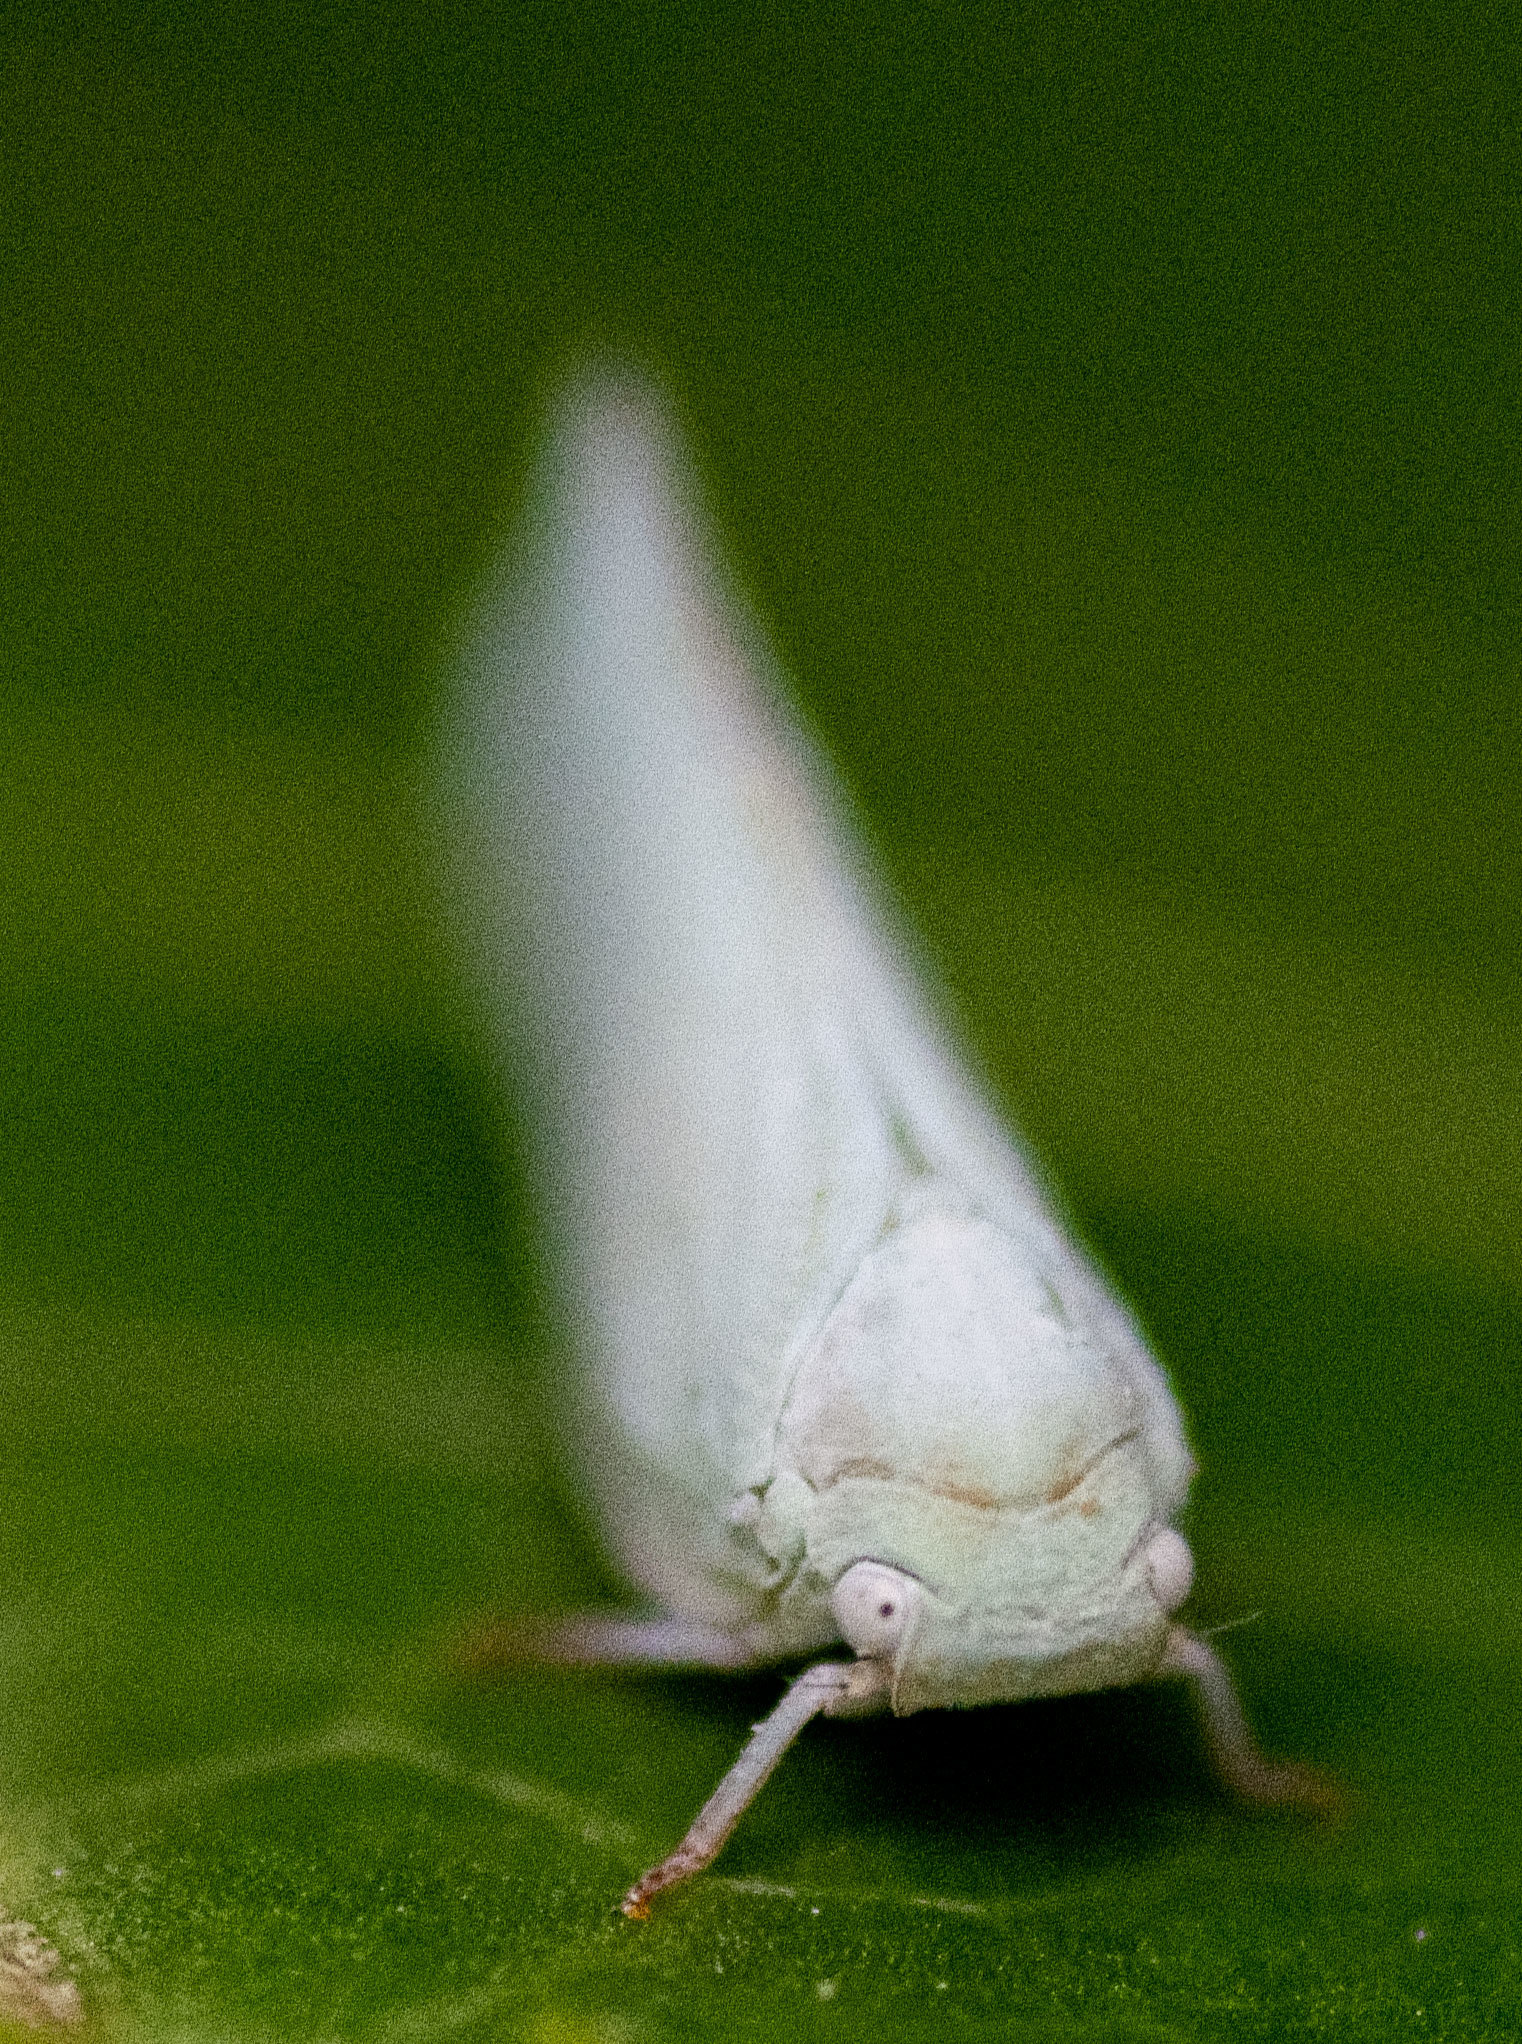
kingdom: Animalia
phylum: Arthropoda
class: Insecta
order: Hemiptera
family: Flatidae
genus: Flatormenis
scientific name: Flatormenis proxima
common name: Northern flatid planthopper
